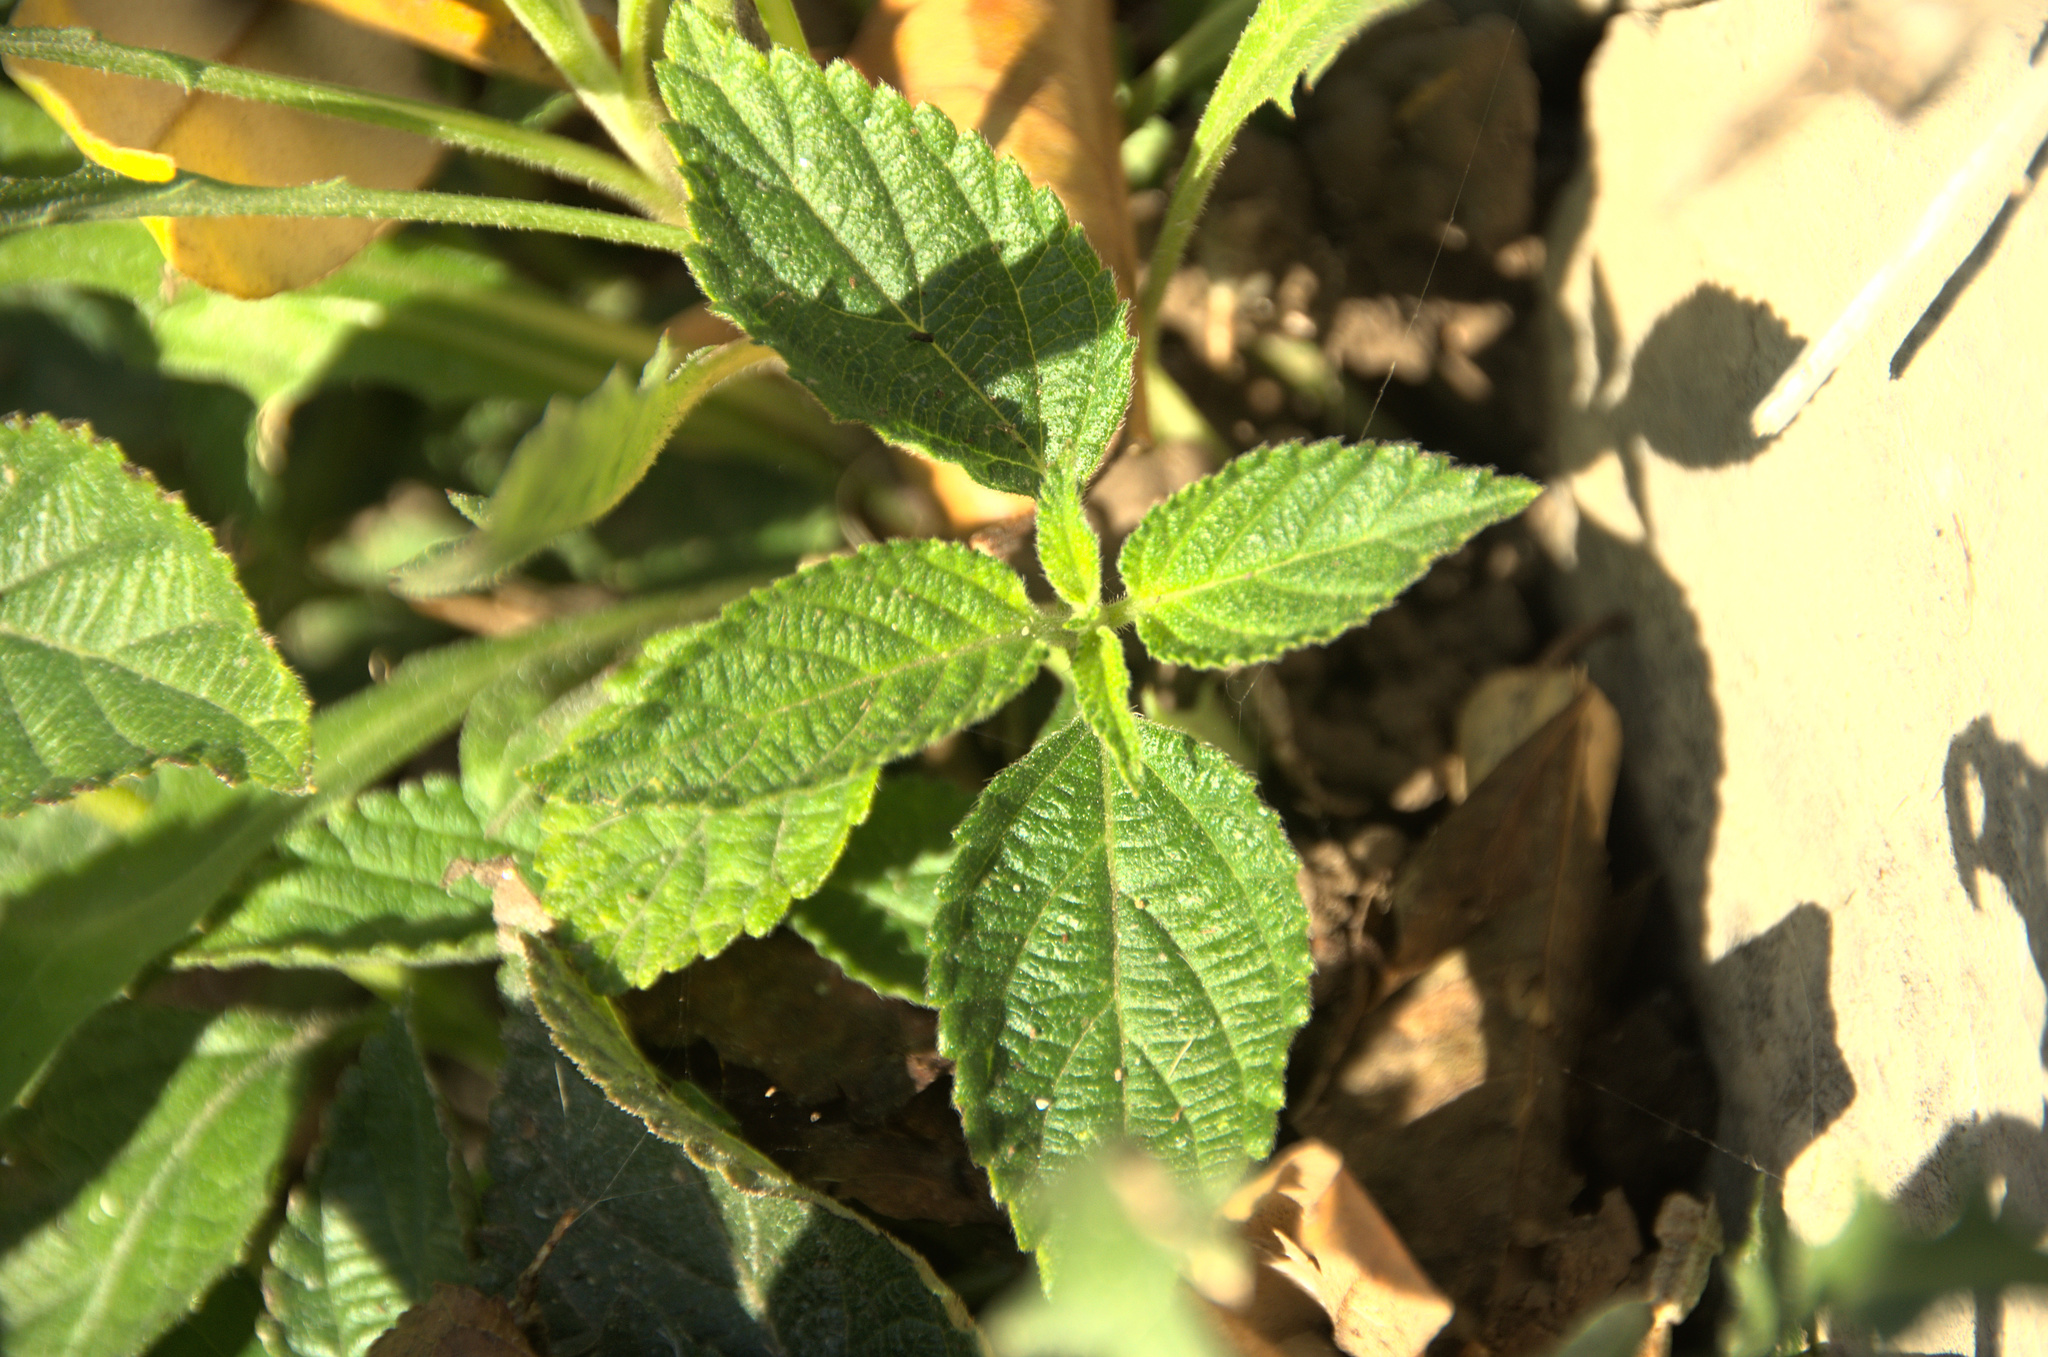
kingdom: Plantae
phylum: Tracheophyta
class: Magnoliopsida
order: Lamiales
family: Verbenaceae
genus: Lantana
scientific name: Lantana camara
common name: Lantana
